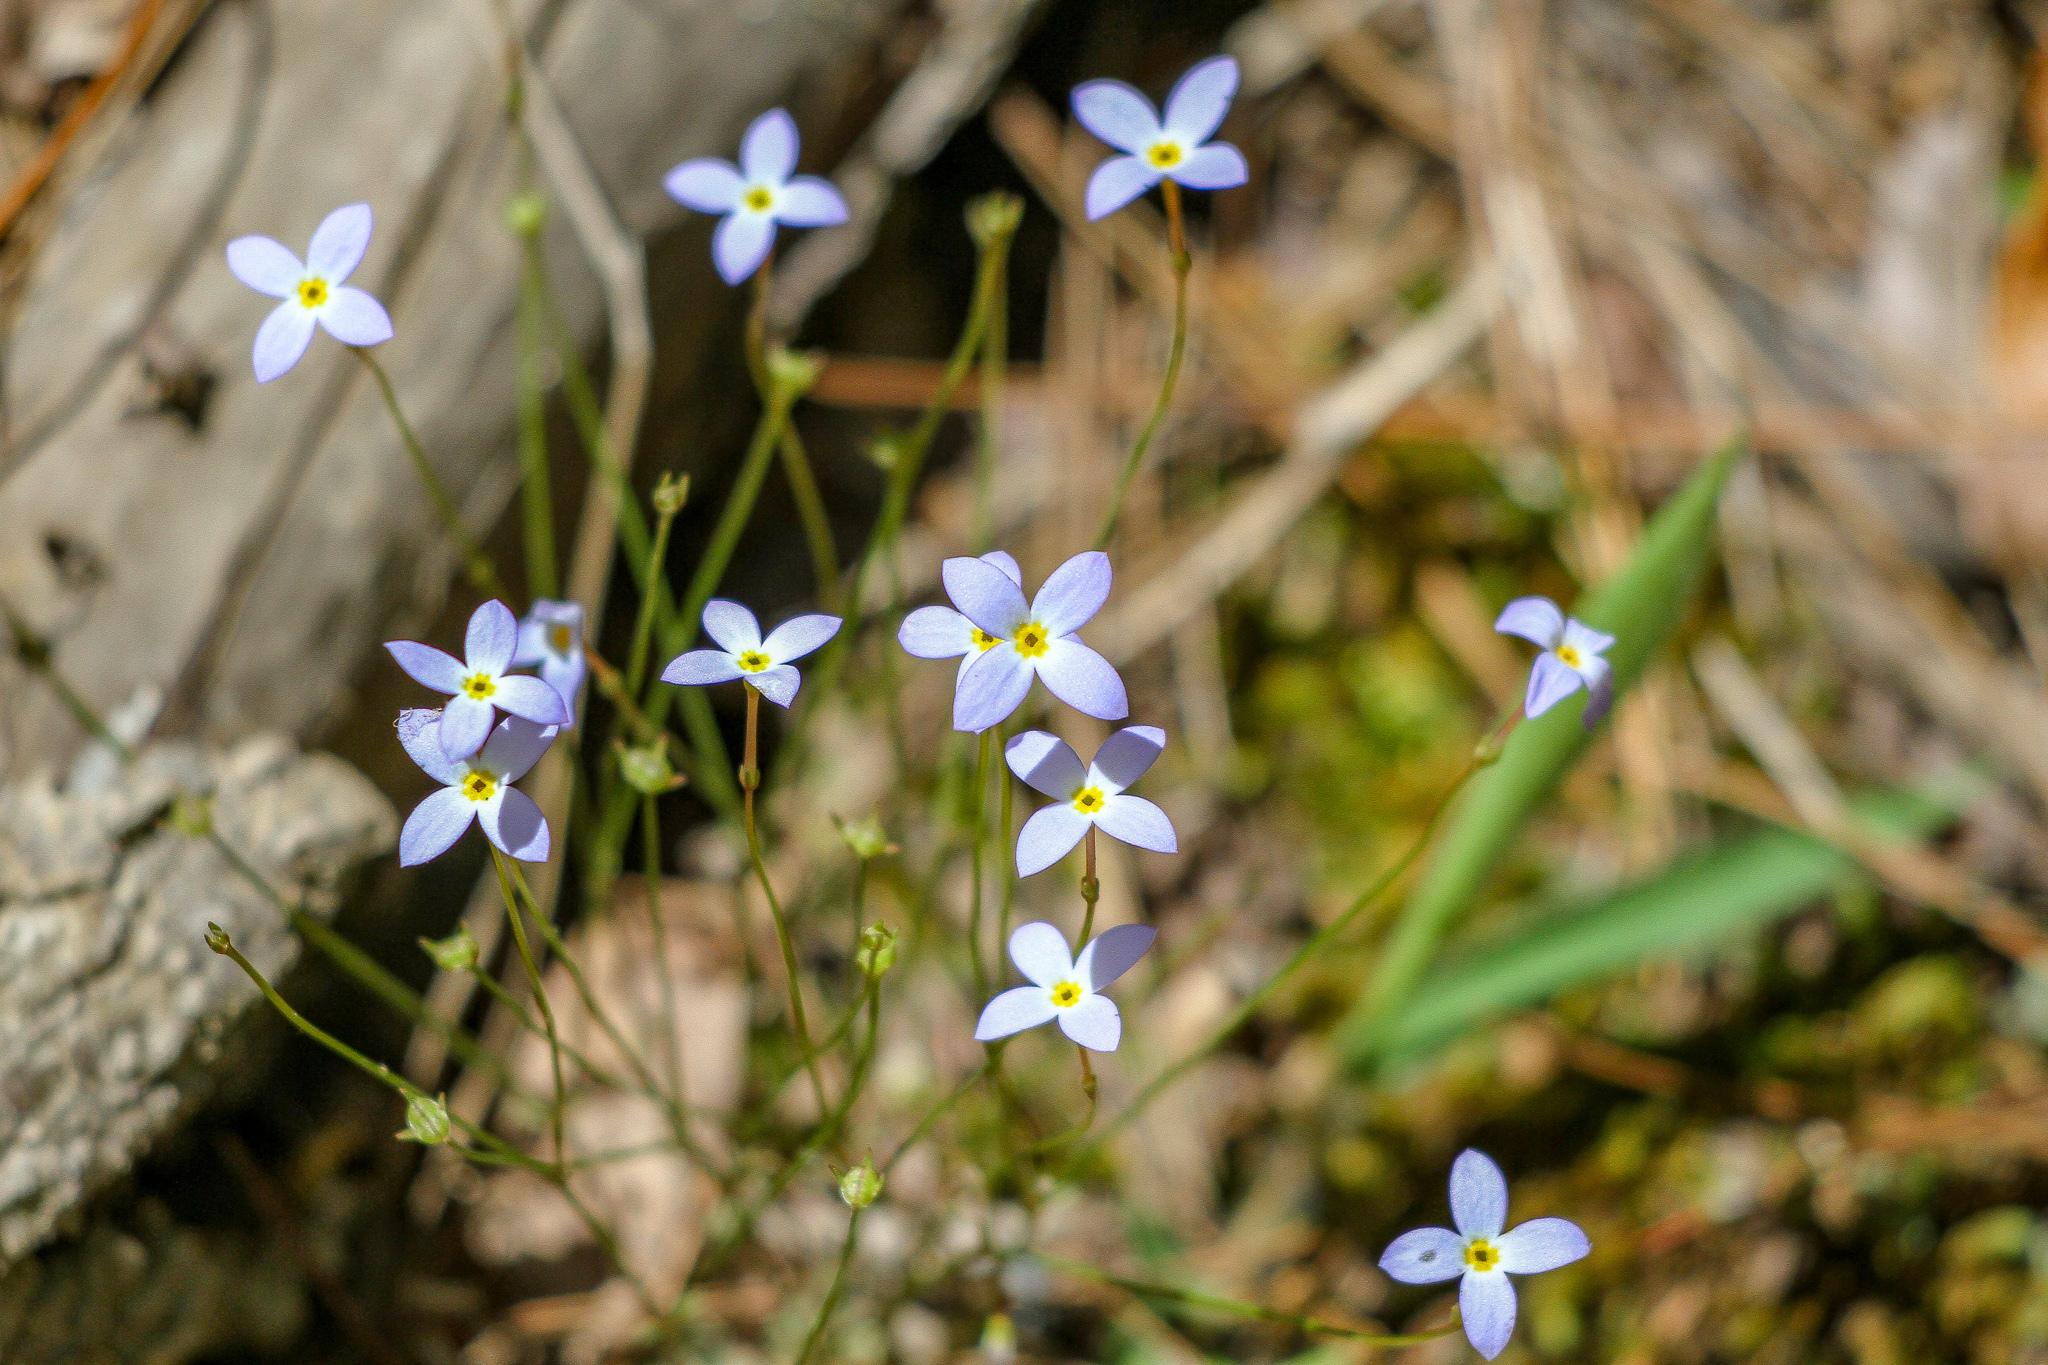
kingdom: Plantae
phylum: Tracheophyta
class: Magnoliopsida
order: Gentianales
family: Rubiaceae
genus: Houstonia
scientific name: Houstonia caerulea
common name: Bluets
